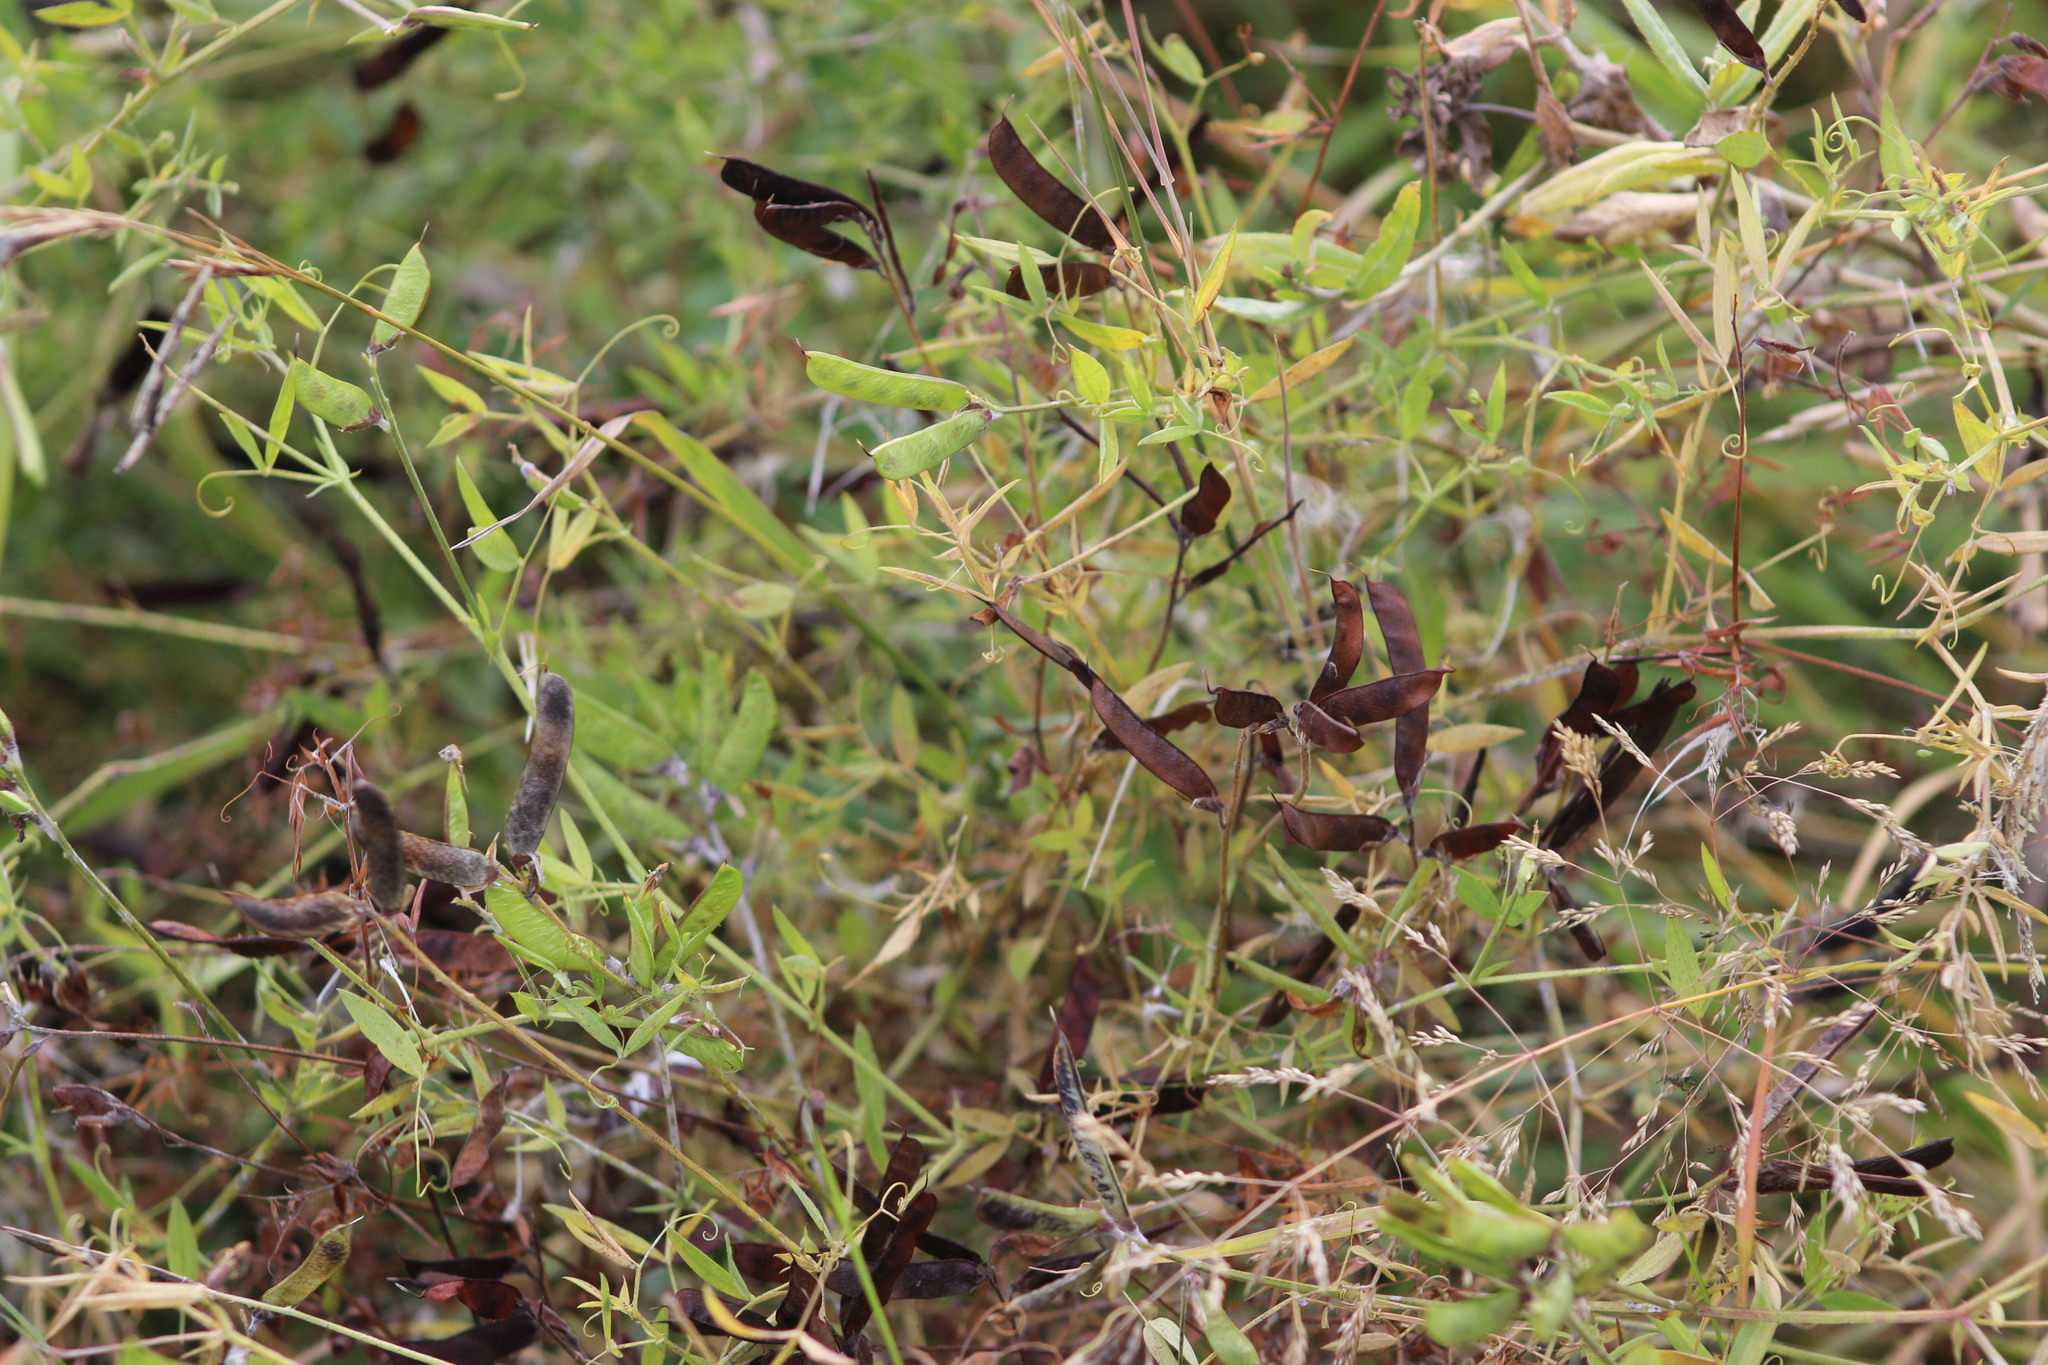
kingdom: Plantae
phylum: Tracheophyta
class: Magnoliopsida
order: Fabales
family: Fabaceae
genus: Lathyrus
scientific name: Lathyrus pratensis
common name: Meadow vetchling
